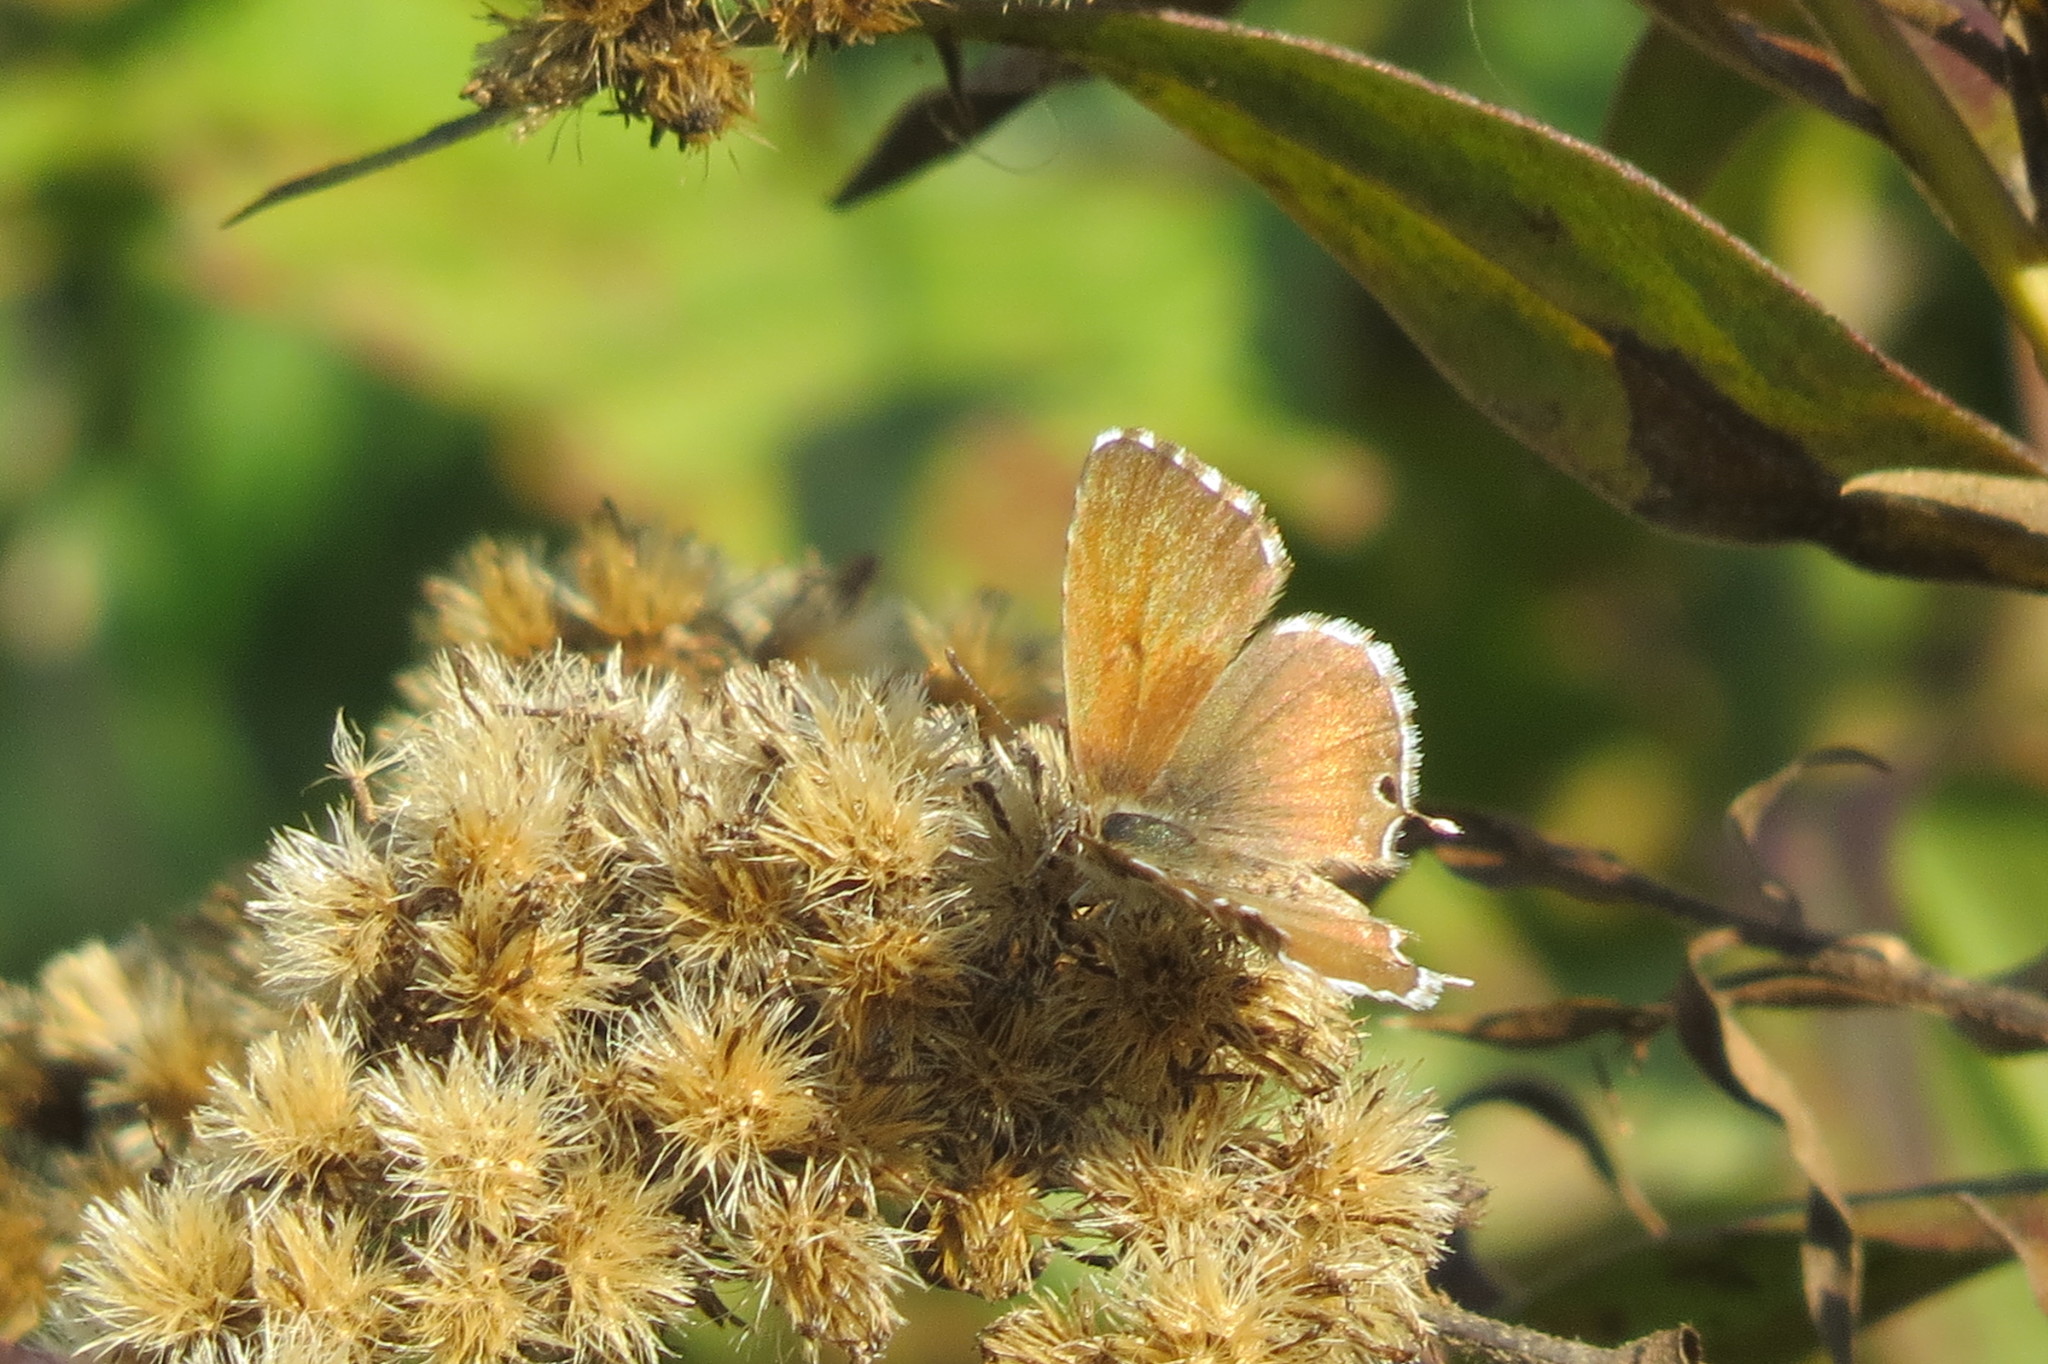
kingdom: Animalia
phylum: Arthropoda
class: Insecta
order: Lepidoptera
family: Lycaenidae
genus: Cacyreus
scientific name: Cacyreus marshalli
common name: Geranium bronze
